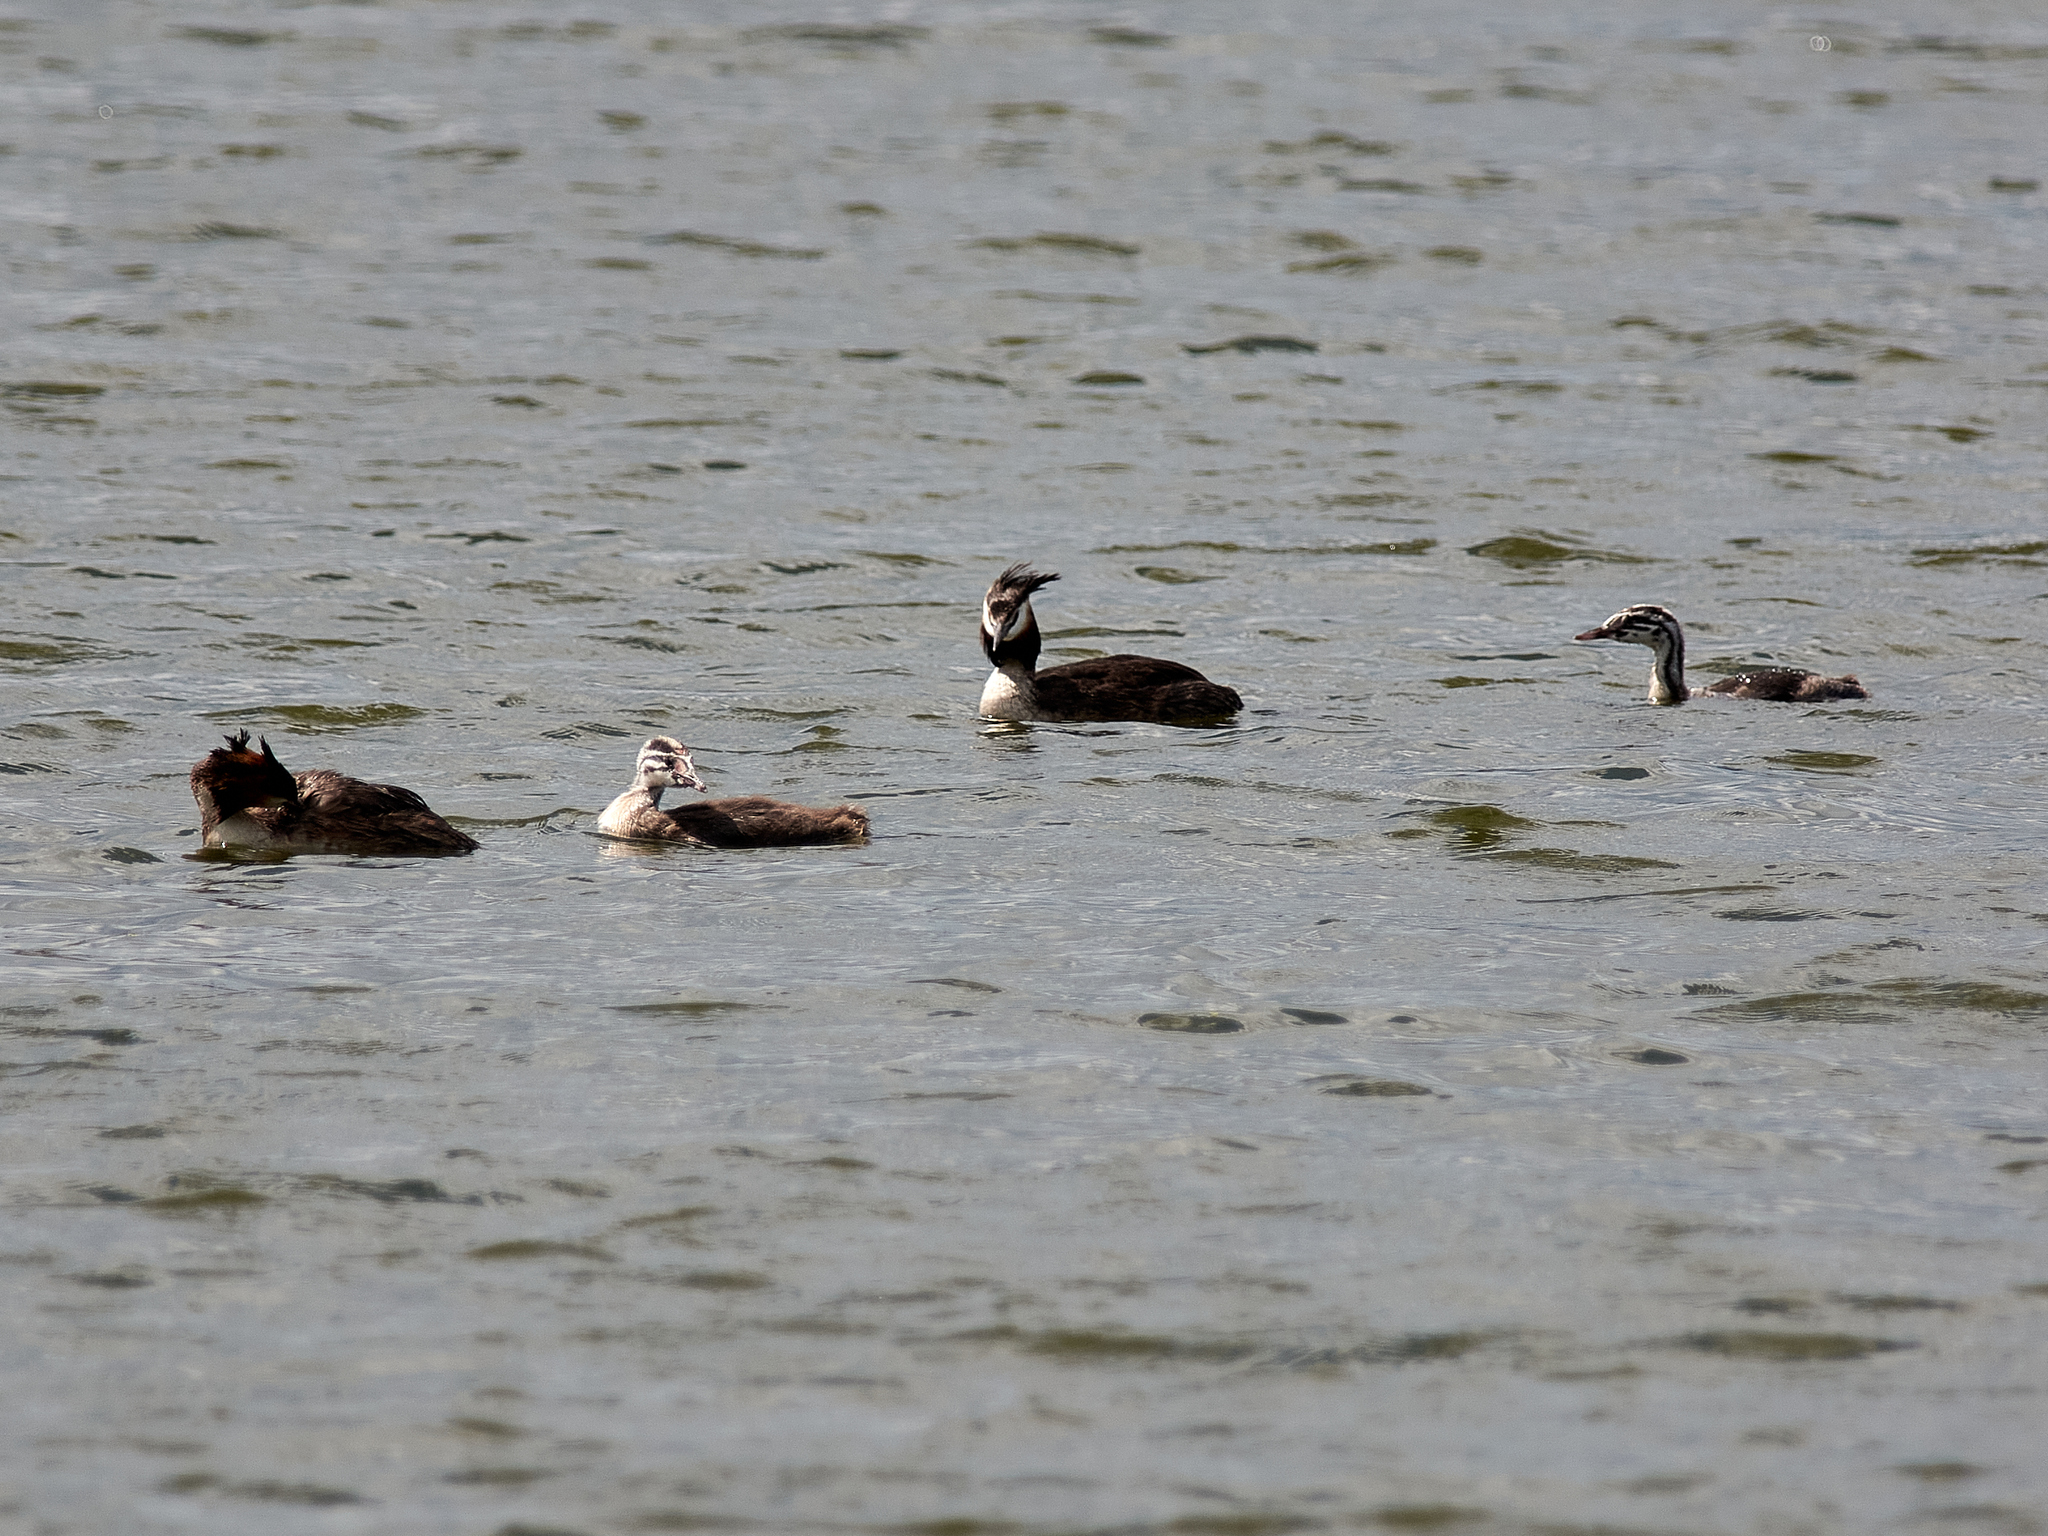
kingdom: Animalia
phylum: Chordata
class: Aves
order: Podicipediformes
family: Podicipedidae
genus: Podiceps
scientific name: Podiceps cristatus
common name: Great crested grebe
